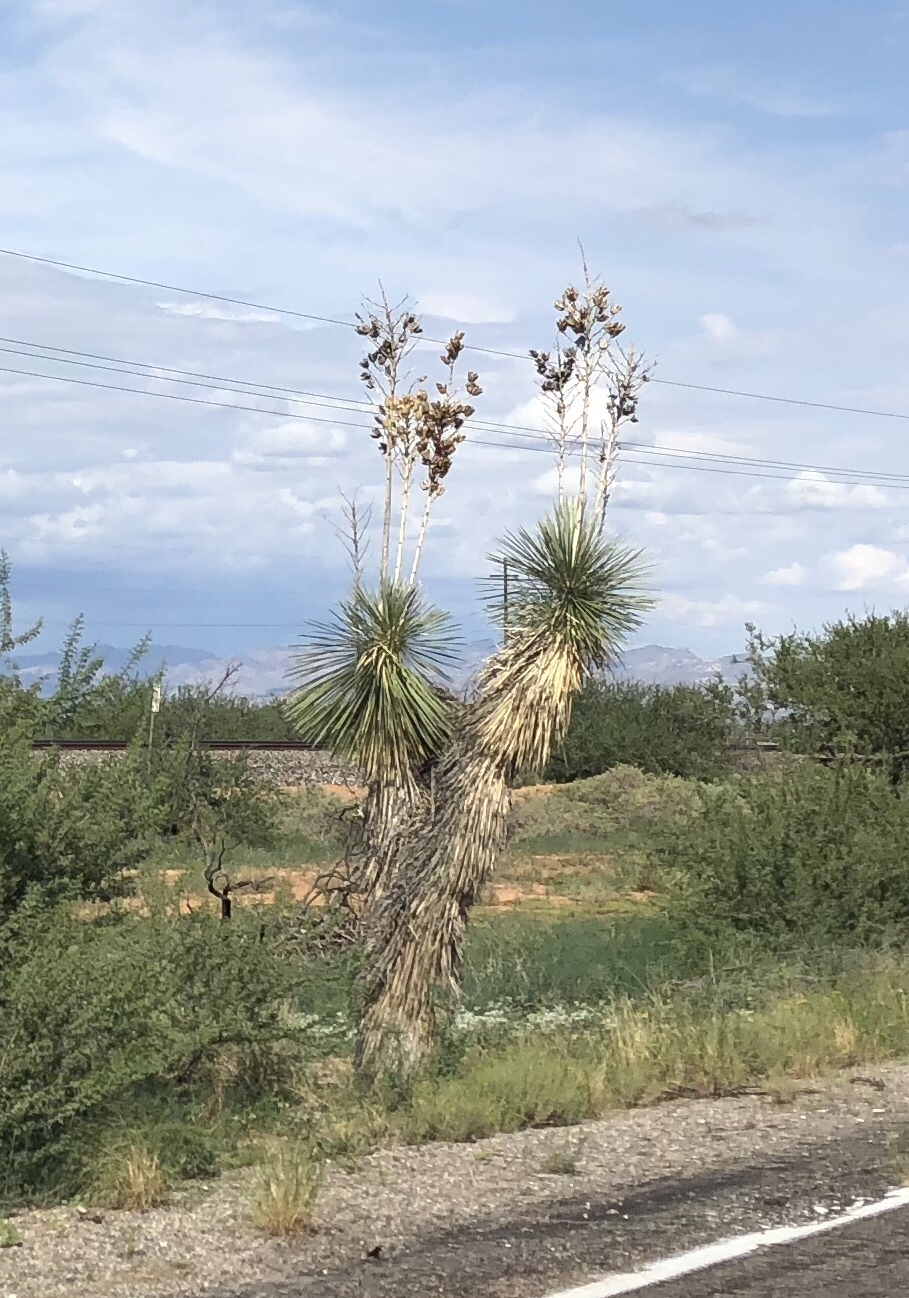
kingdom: Plantae
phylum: Tracheophyta
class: Liliopsida
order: Asparagales
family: Asparagaceae
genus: Yucca
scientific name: Yucca elata
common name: Palmella
